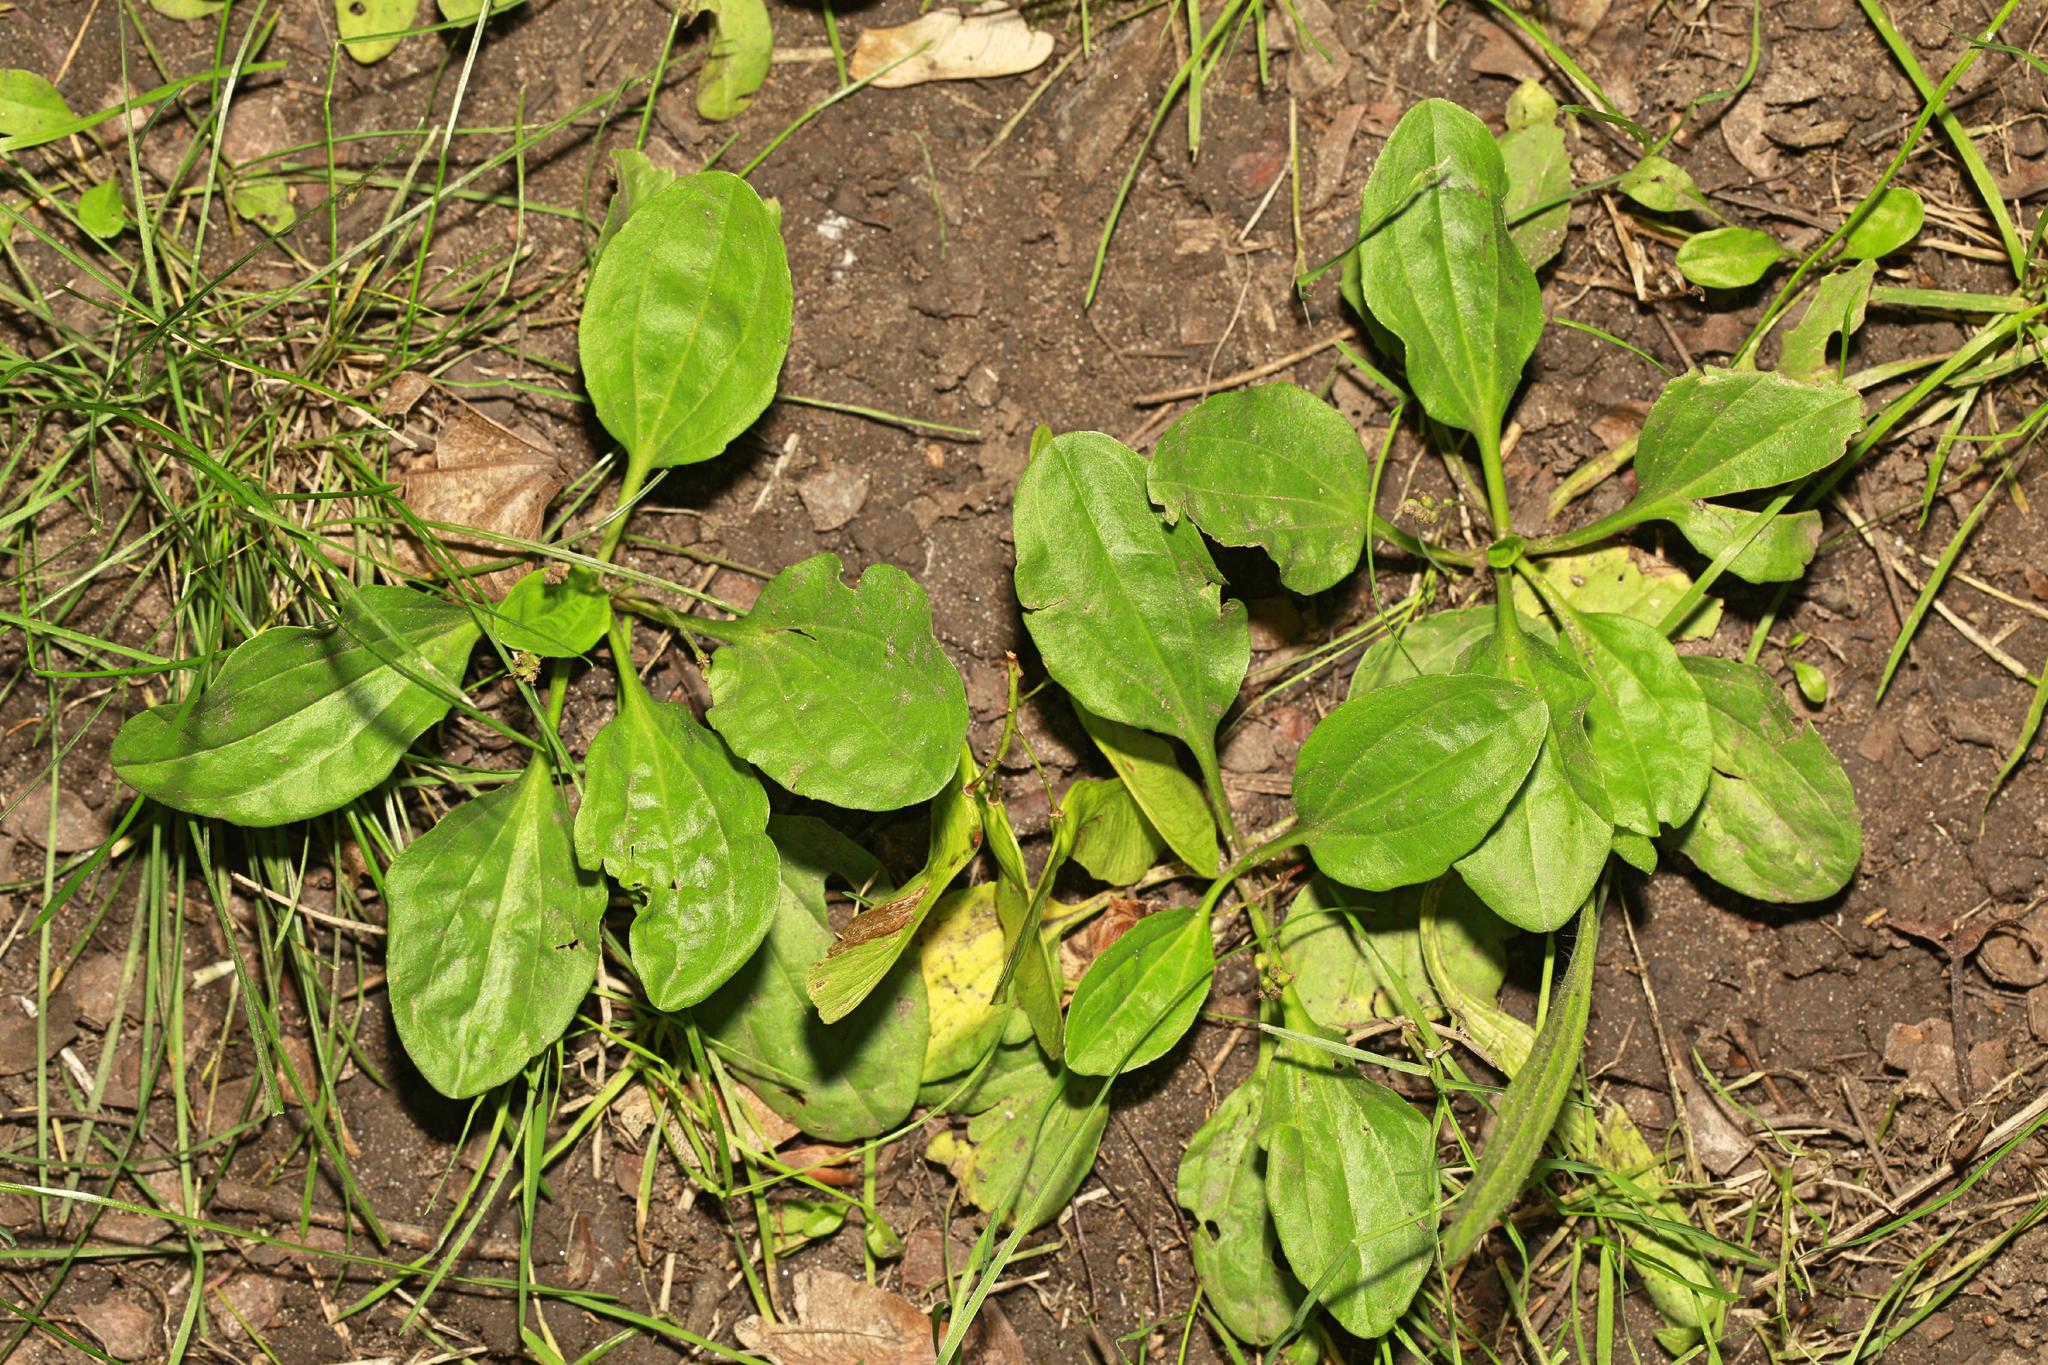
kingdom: Plantae
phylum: Tracheophyta
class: Magnoliopsida
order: Lamiales
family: Plantaginaceae
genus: Plantago
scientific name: Plantago major
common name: Common plantain
